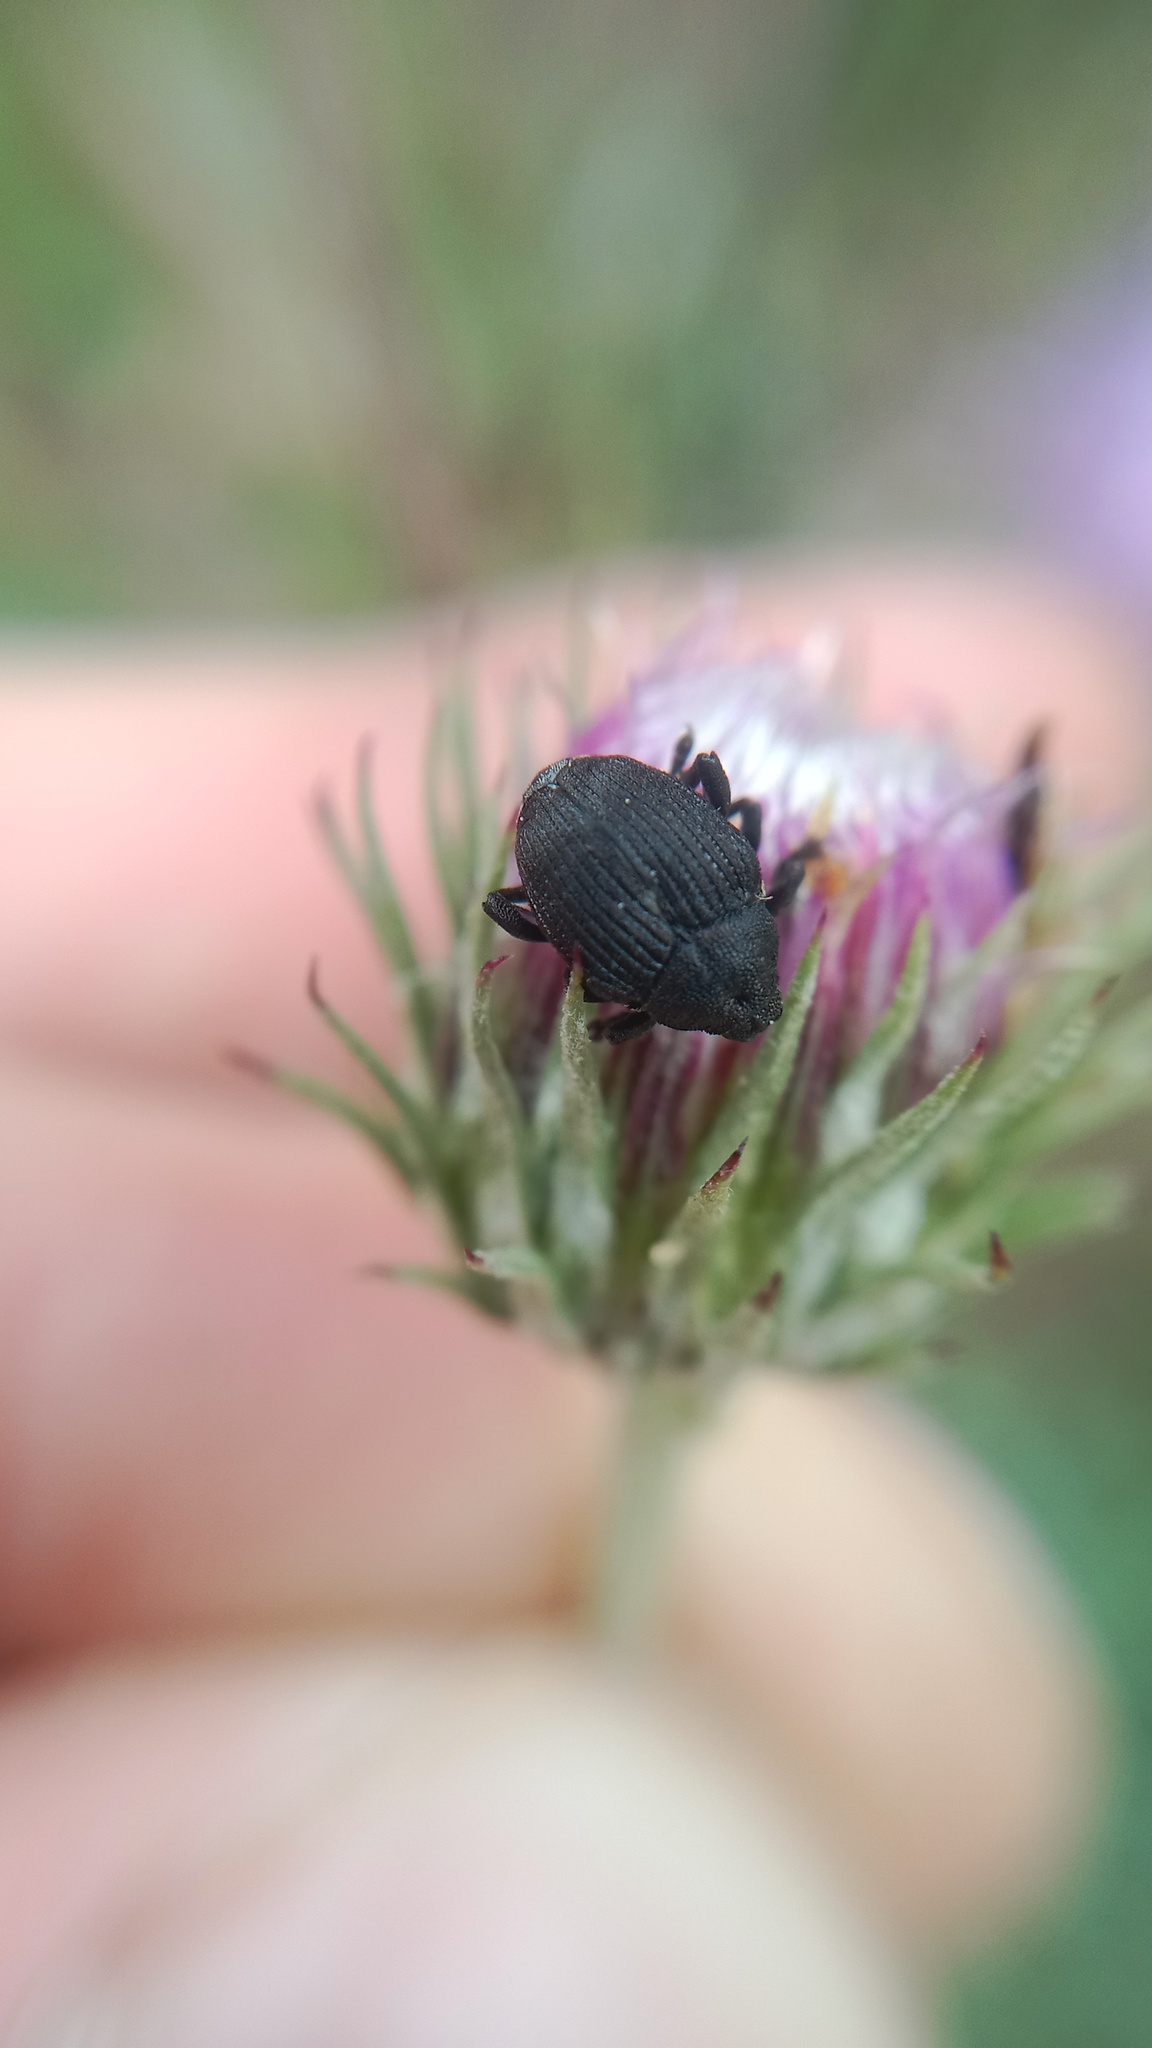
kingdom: Animalia
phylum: Arthropoda
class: Insecta
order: Coleoptera
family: Curculionidae
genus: Mononychus
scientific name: Mononychus punctumalbum
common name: Iris weevil
